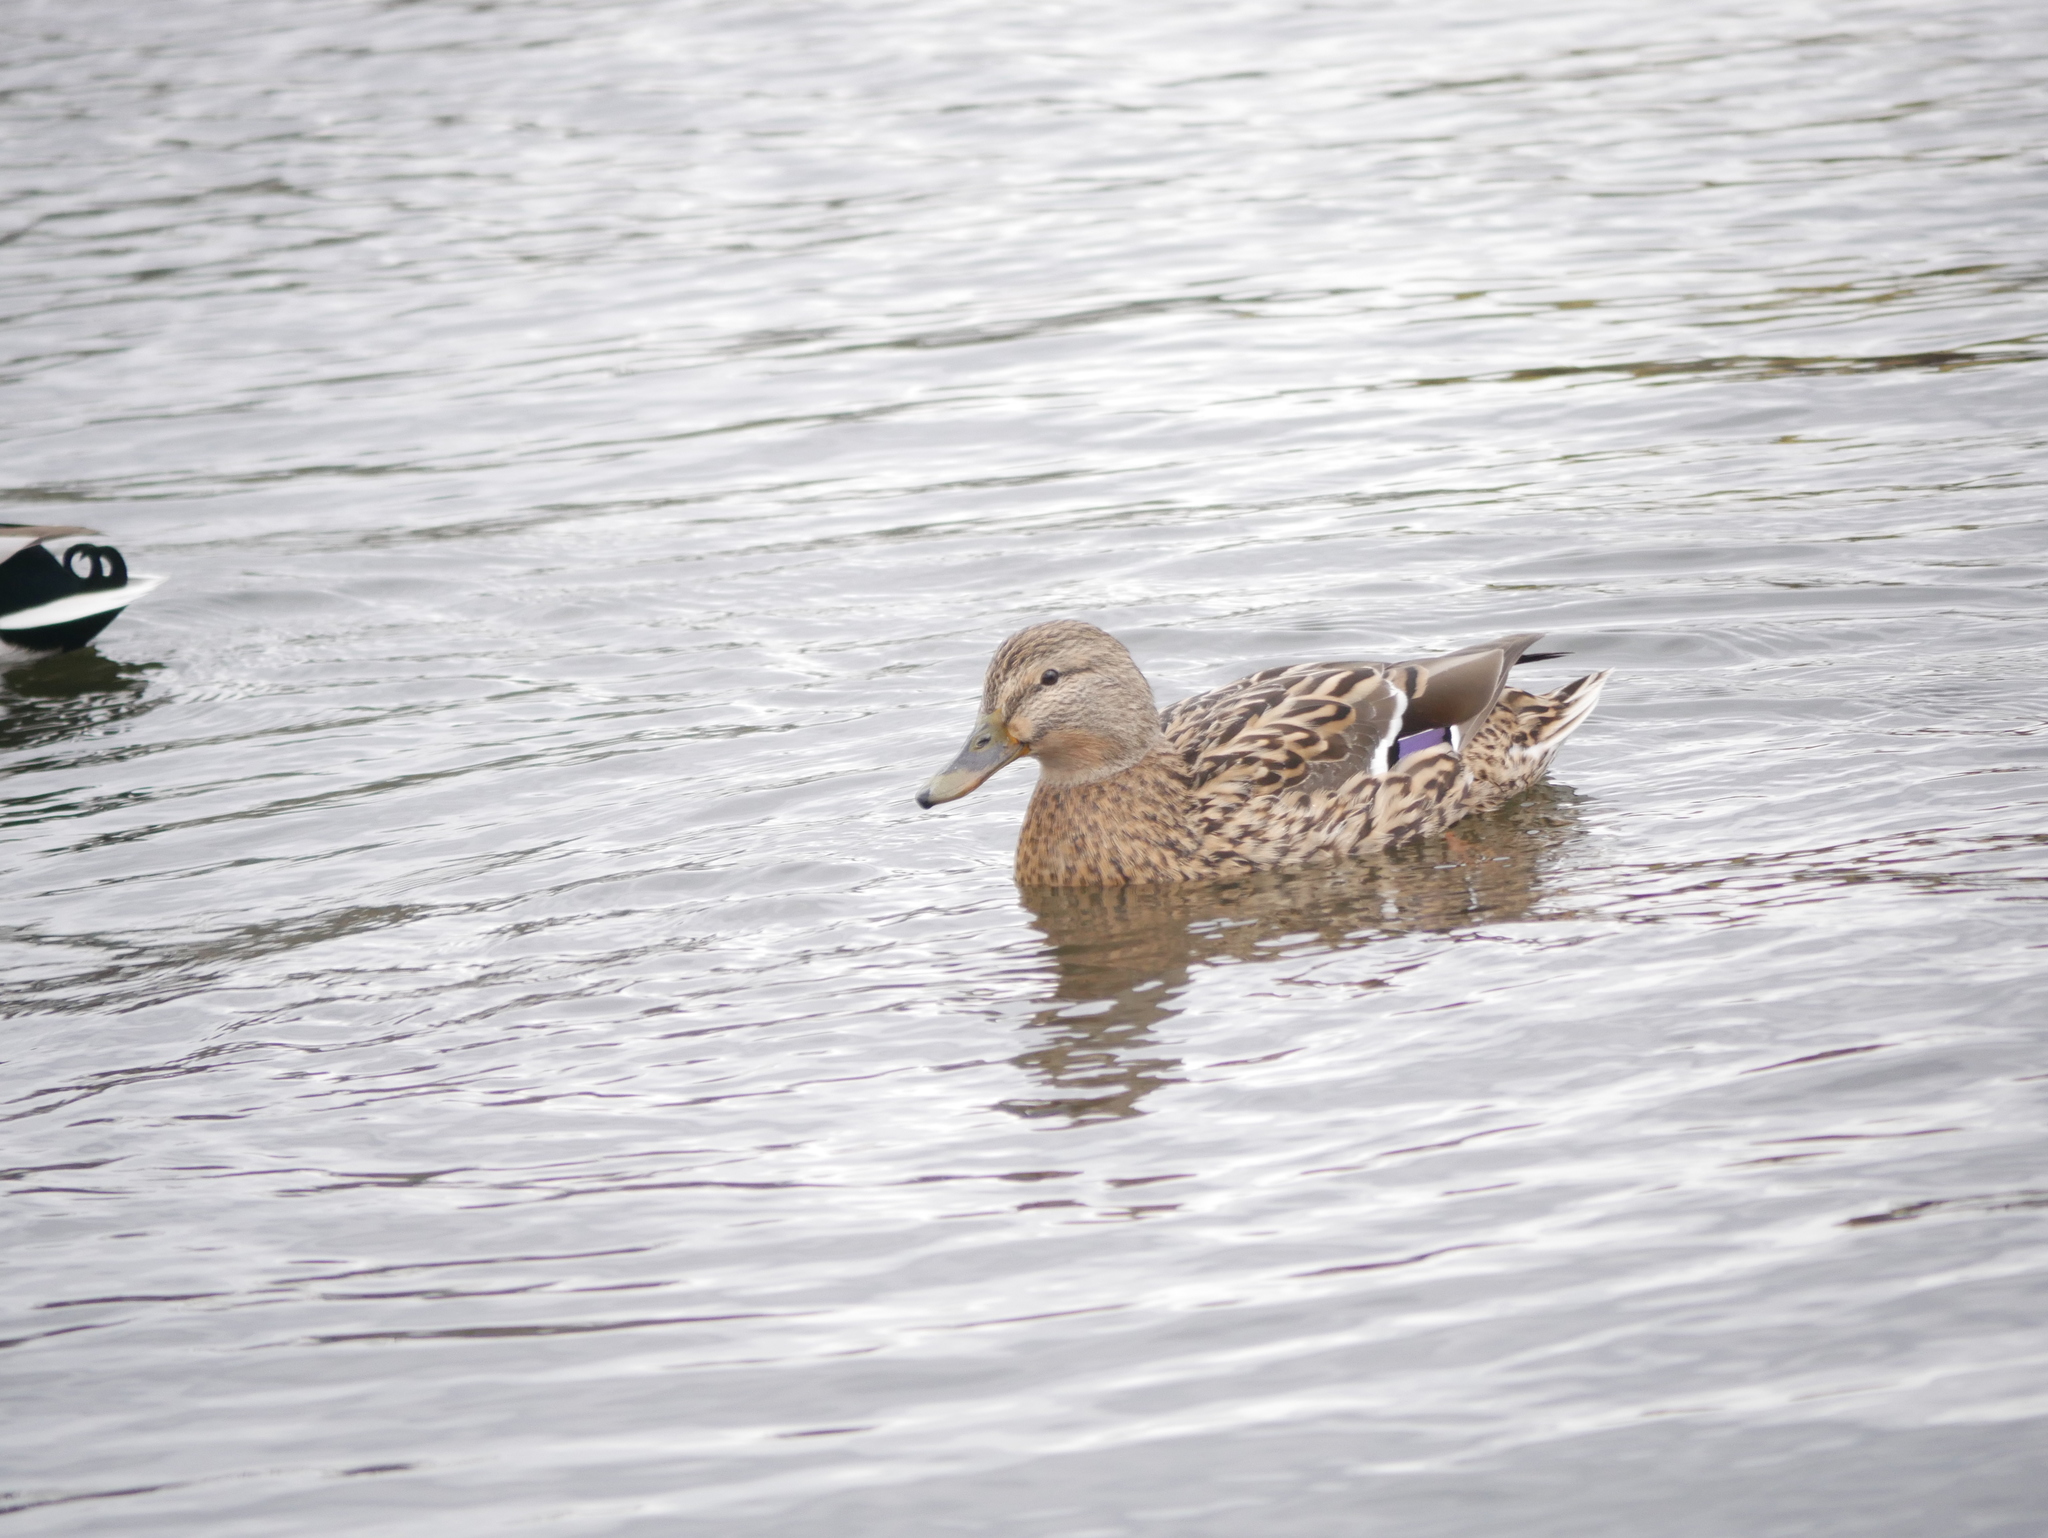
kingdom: Animalia
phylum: Chordata
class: Aves
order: Anseriformes
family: Anatidae
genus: Anas
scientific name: Anas platyrhynchos
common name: Mallard
